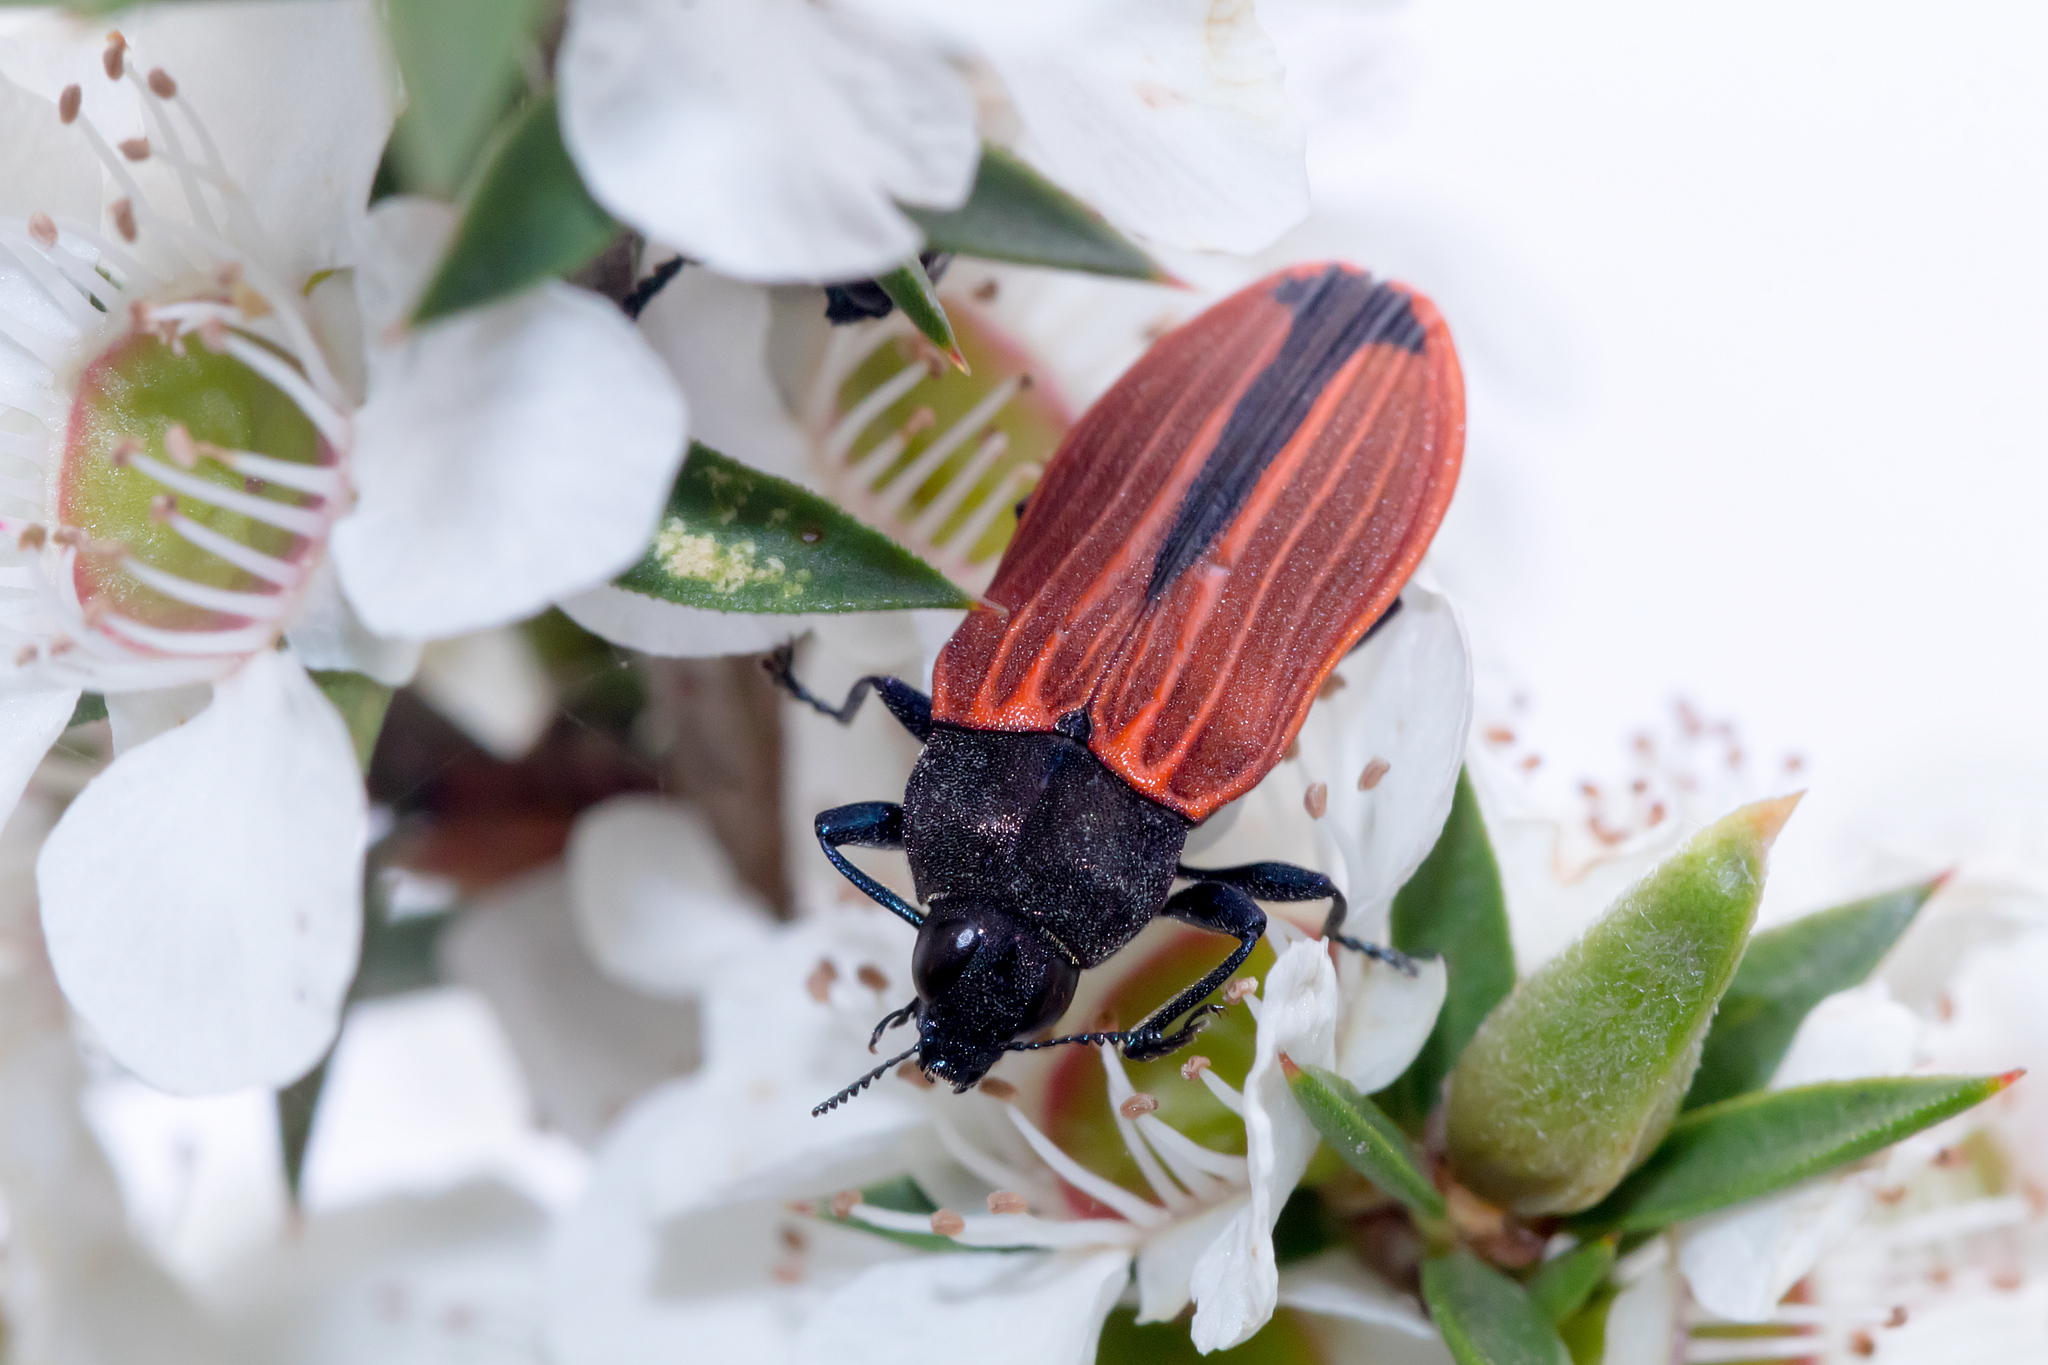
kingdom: Animalia
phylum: Arthropoda
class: Insecta
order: Coleoptera
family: Buprestidae
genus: Castiarina
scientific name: Castiarina erythroptera
